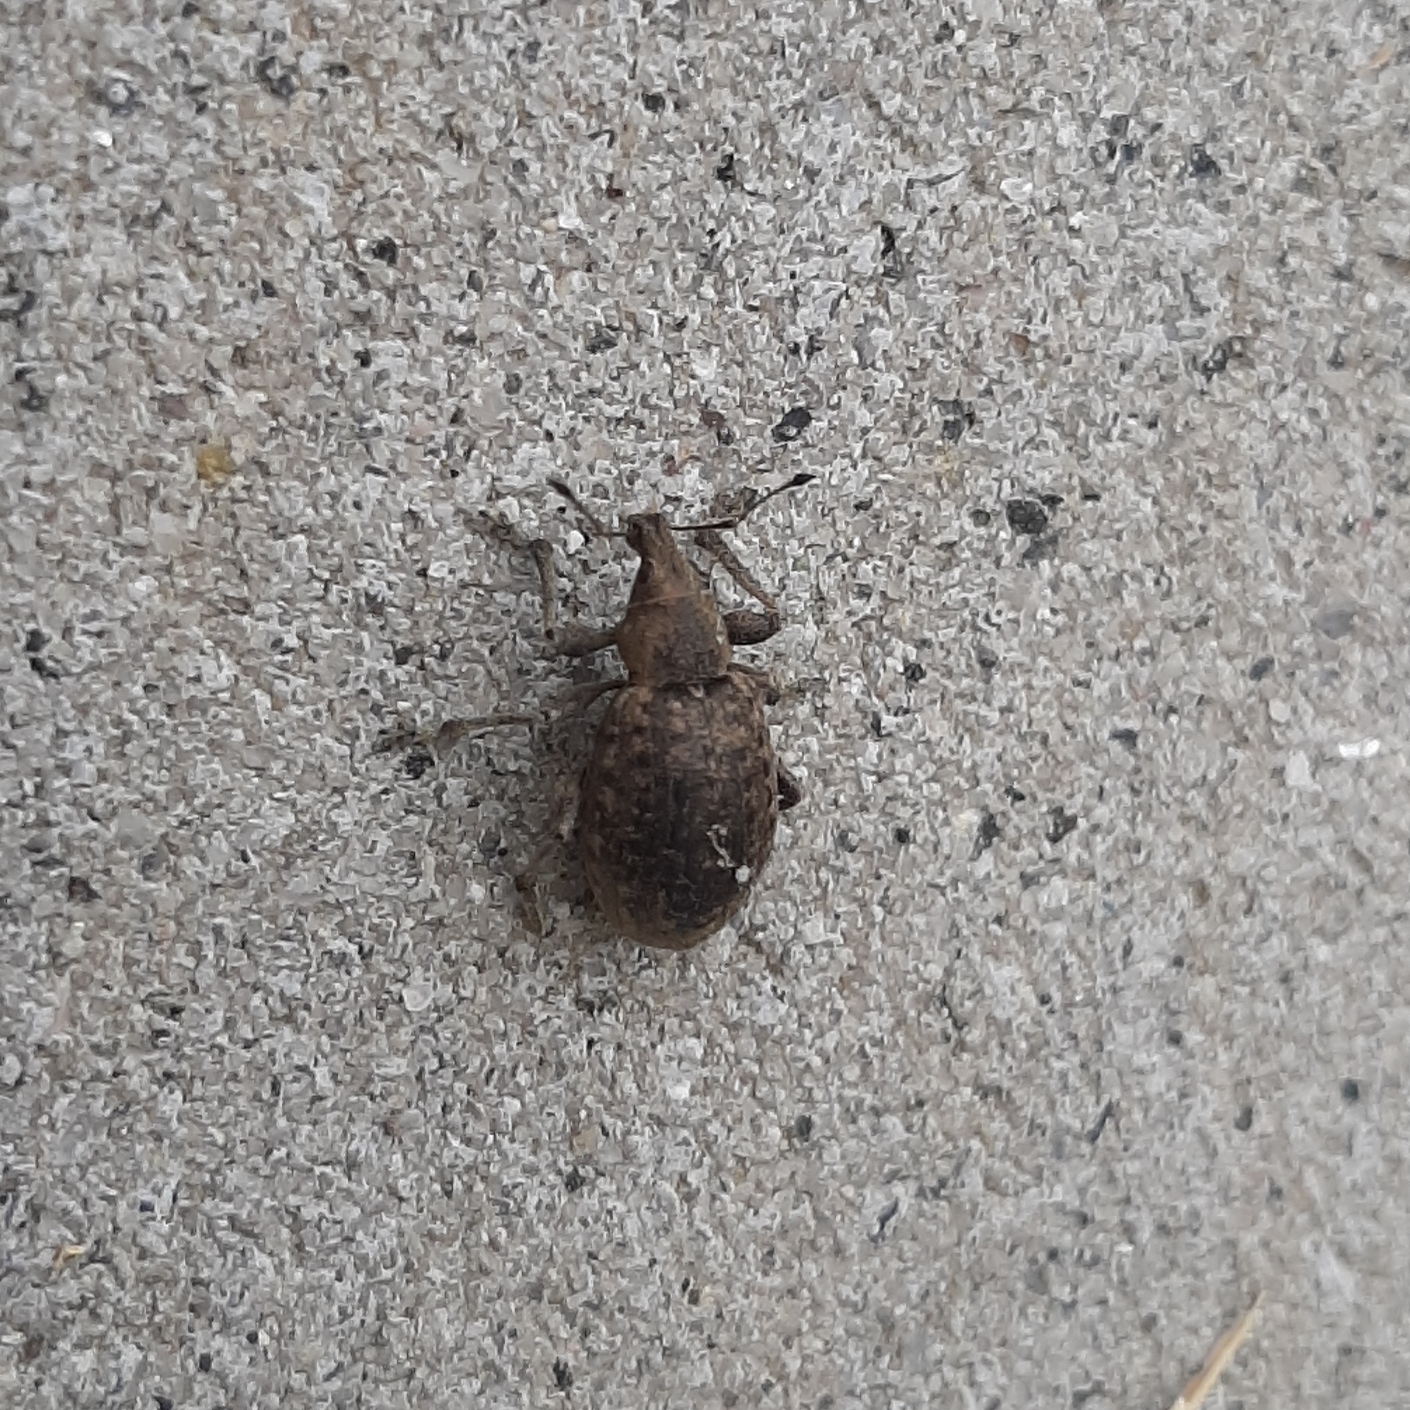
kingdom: Animalia
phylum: Arthropoda
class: Insecta
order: Coleoptera
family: Curculionidae
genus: Liophloeus
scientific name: Liophloeus tessulatus
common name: Weevil
